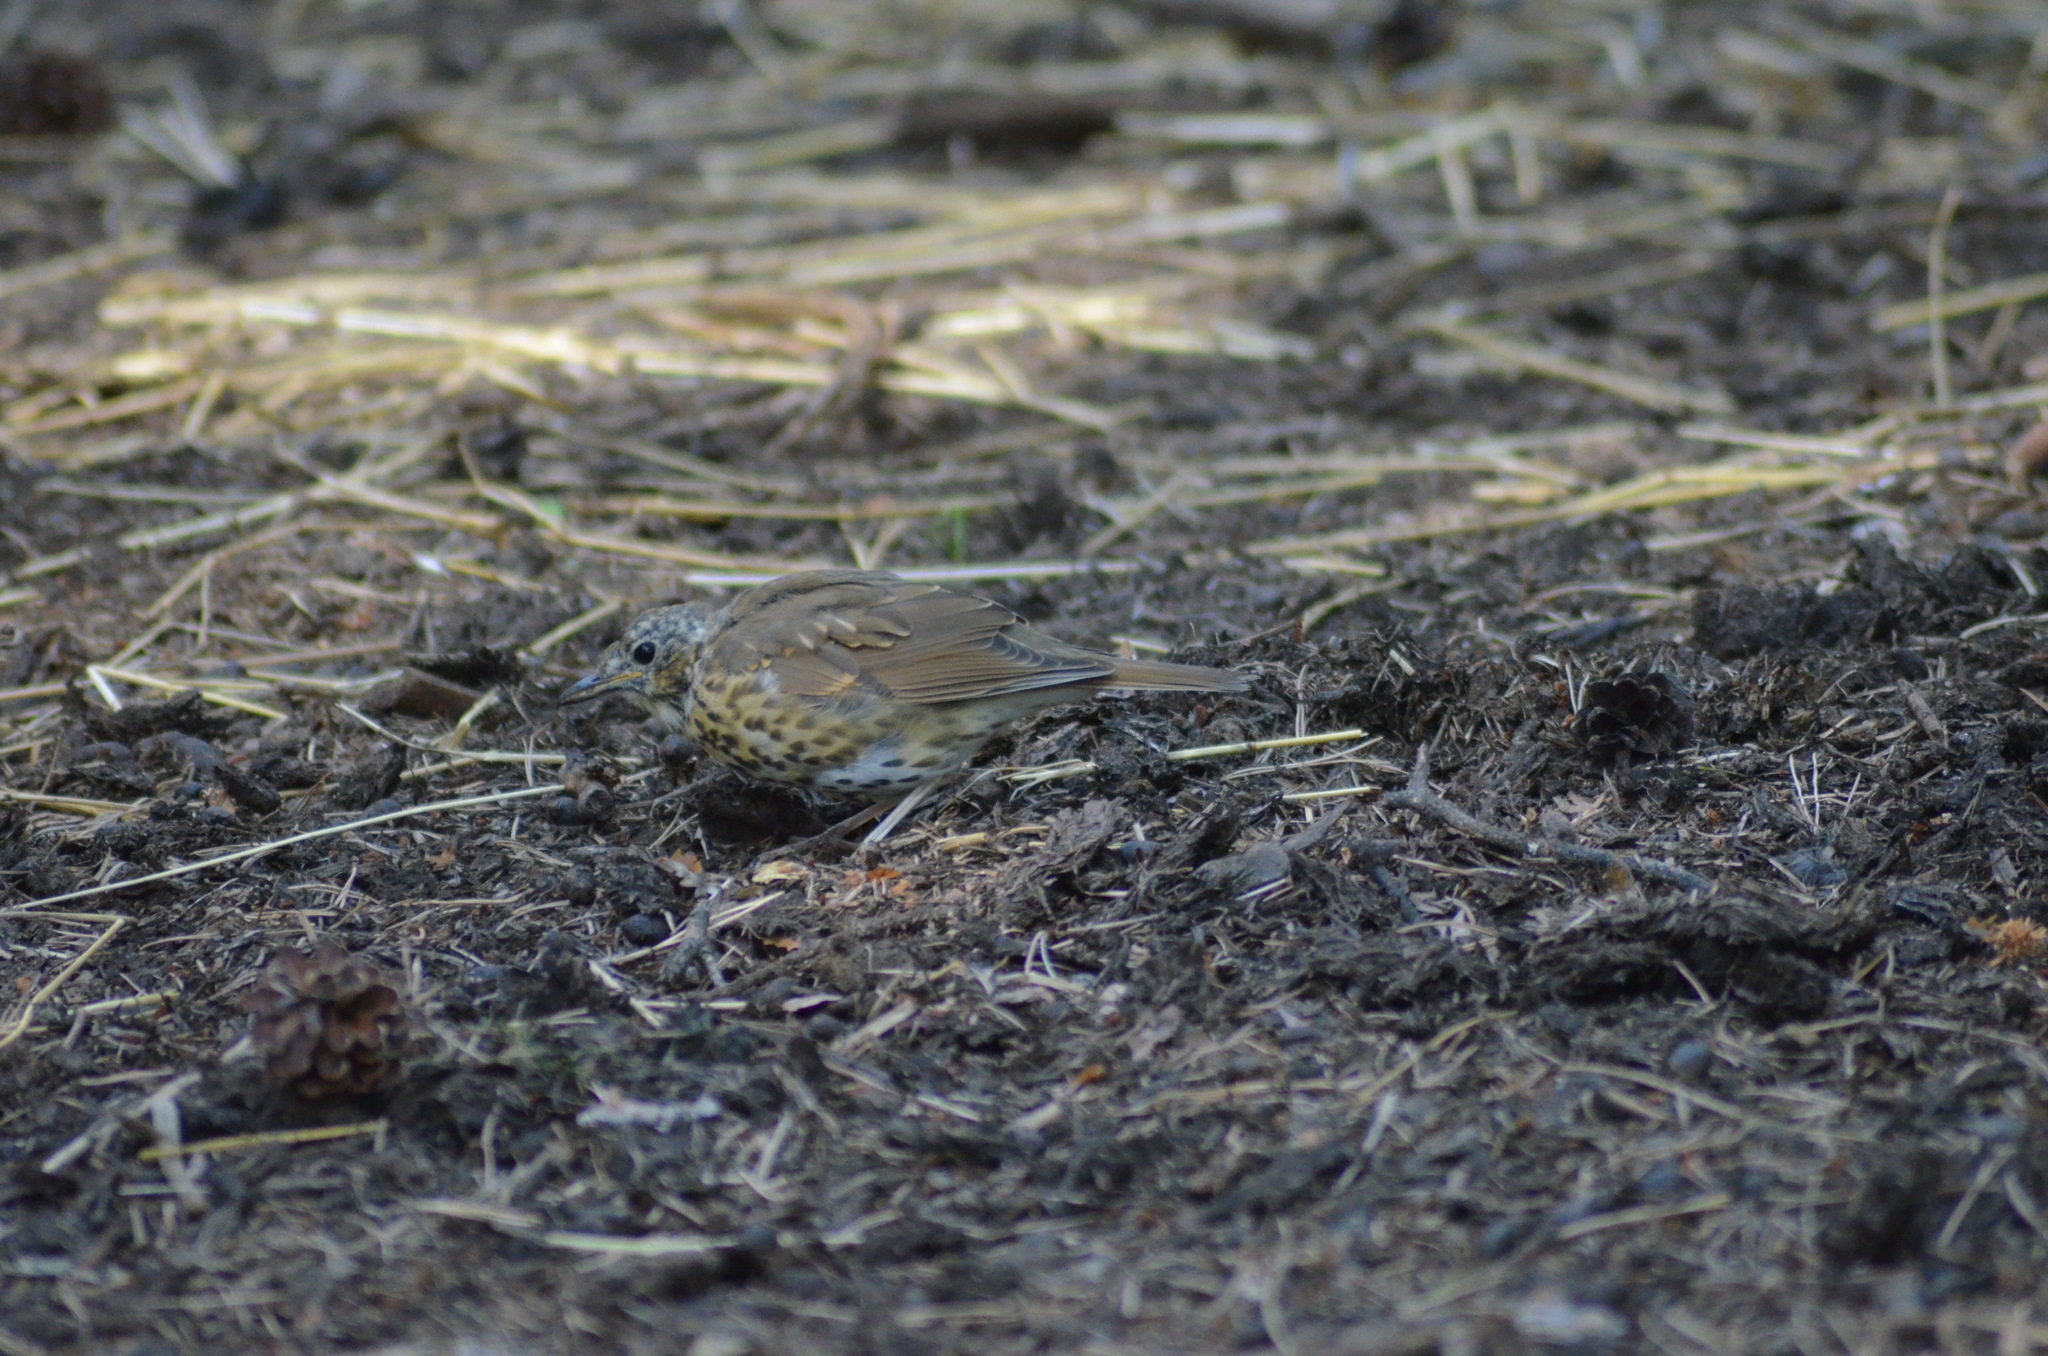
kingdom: Animalia
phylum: Chordata
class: Aves
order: Passeriformes
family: Turdidae
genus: Turdus
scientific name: Turdus philomelos
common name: Song thrush
